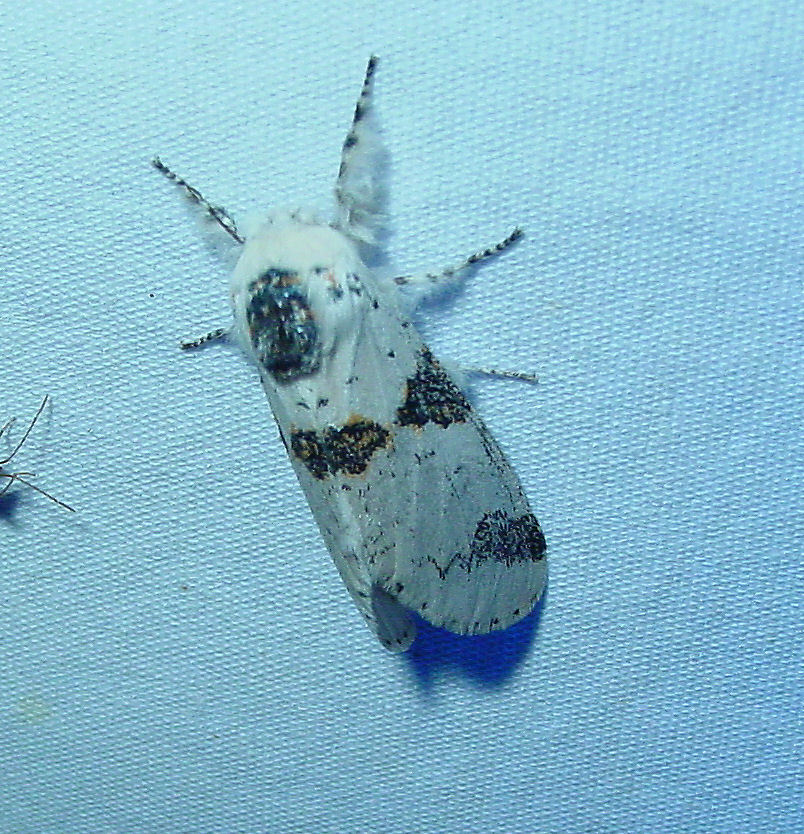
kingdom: Animalia
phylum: Arthropoda
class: Insecta
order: Lepidoptera
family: Notodontidae
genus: Furcula
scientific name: Furcula scolopendrina
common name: Zigzag furcula moth
